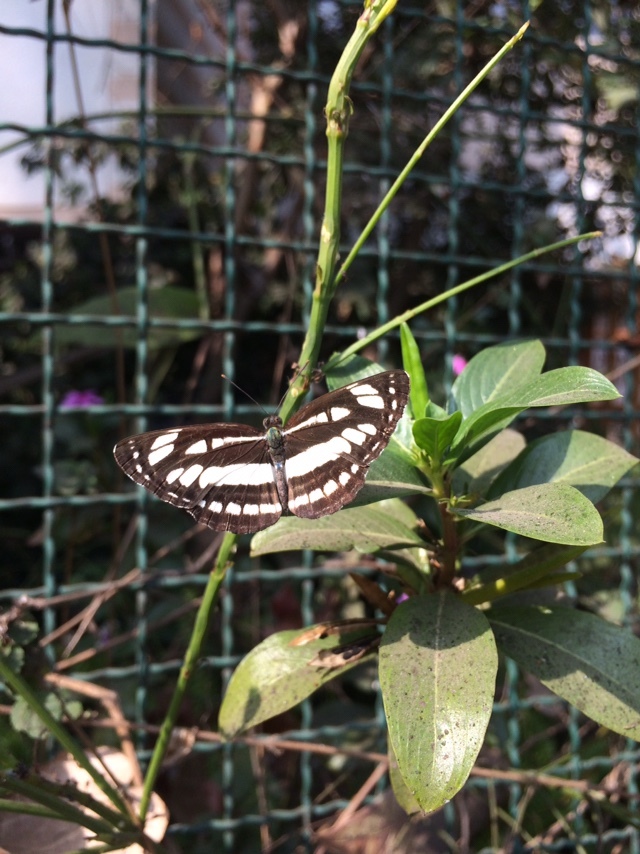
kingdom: Animalia
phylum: Arthropoda
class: Insecta
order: Lepidoptera
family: Nymphalidae
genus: Neptis
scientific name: Neptis hylas
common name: Common sailer
